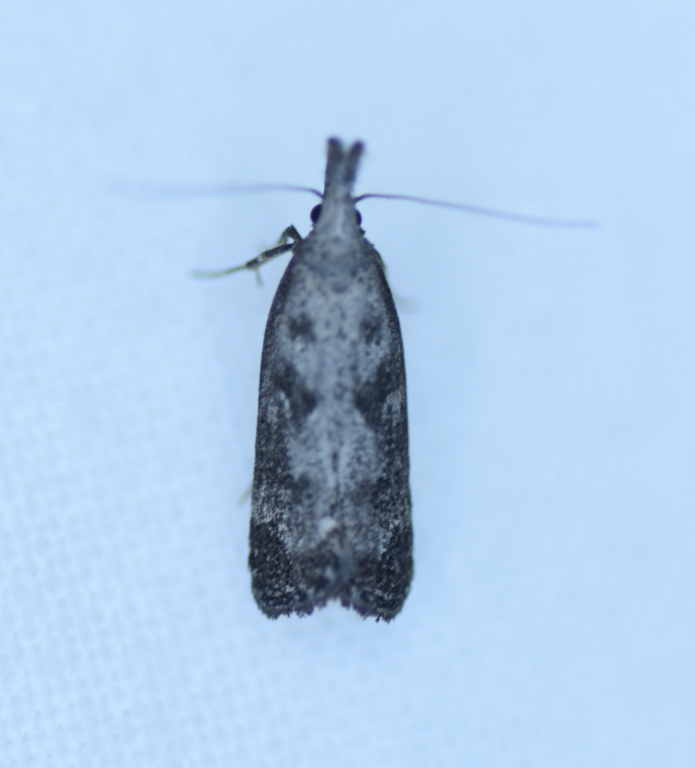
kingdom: Animalia
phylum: Arthropoda
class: Insecta
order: Lepidoptera
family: Gelechiidae
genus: Dichomeris
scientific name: Dichomeris inversella
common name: Inverse dichomeris moth
